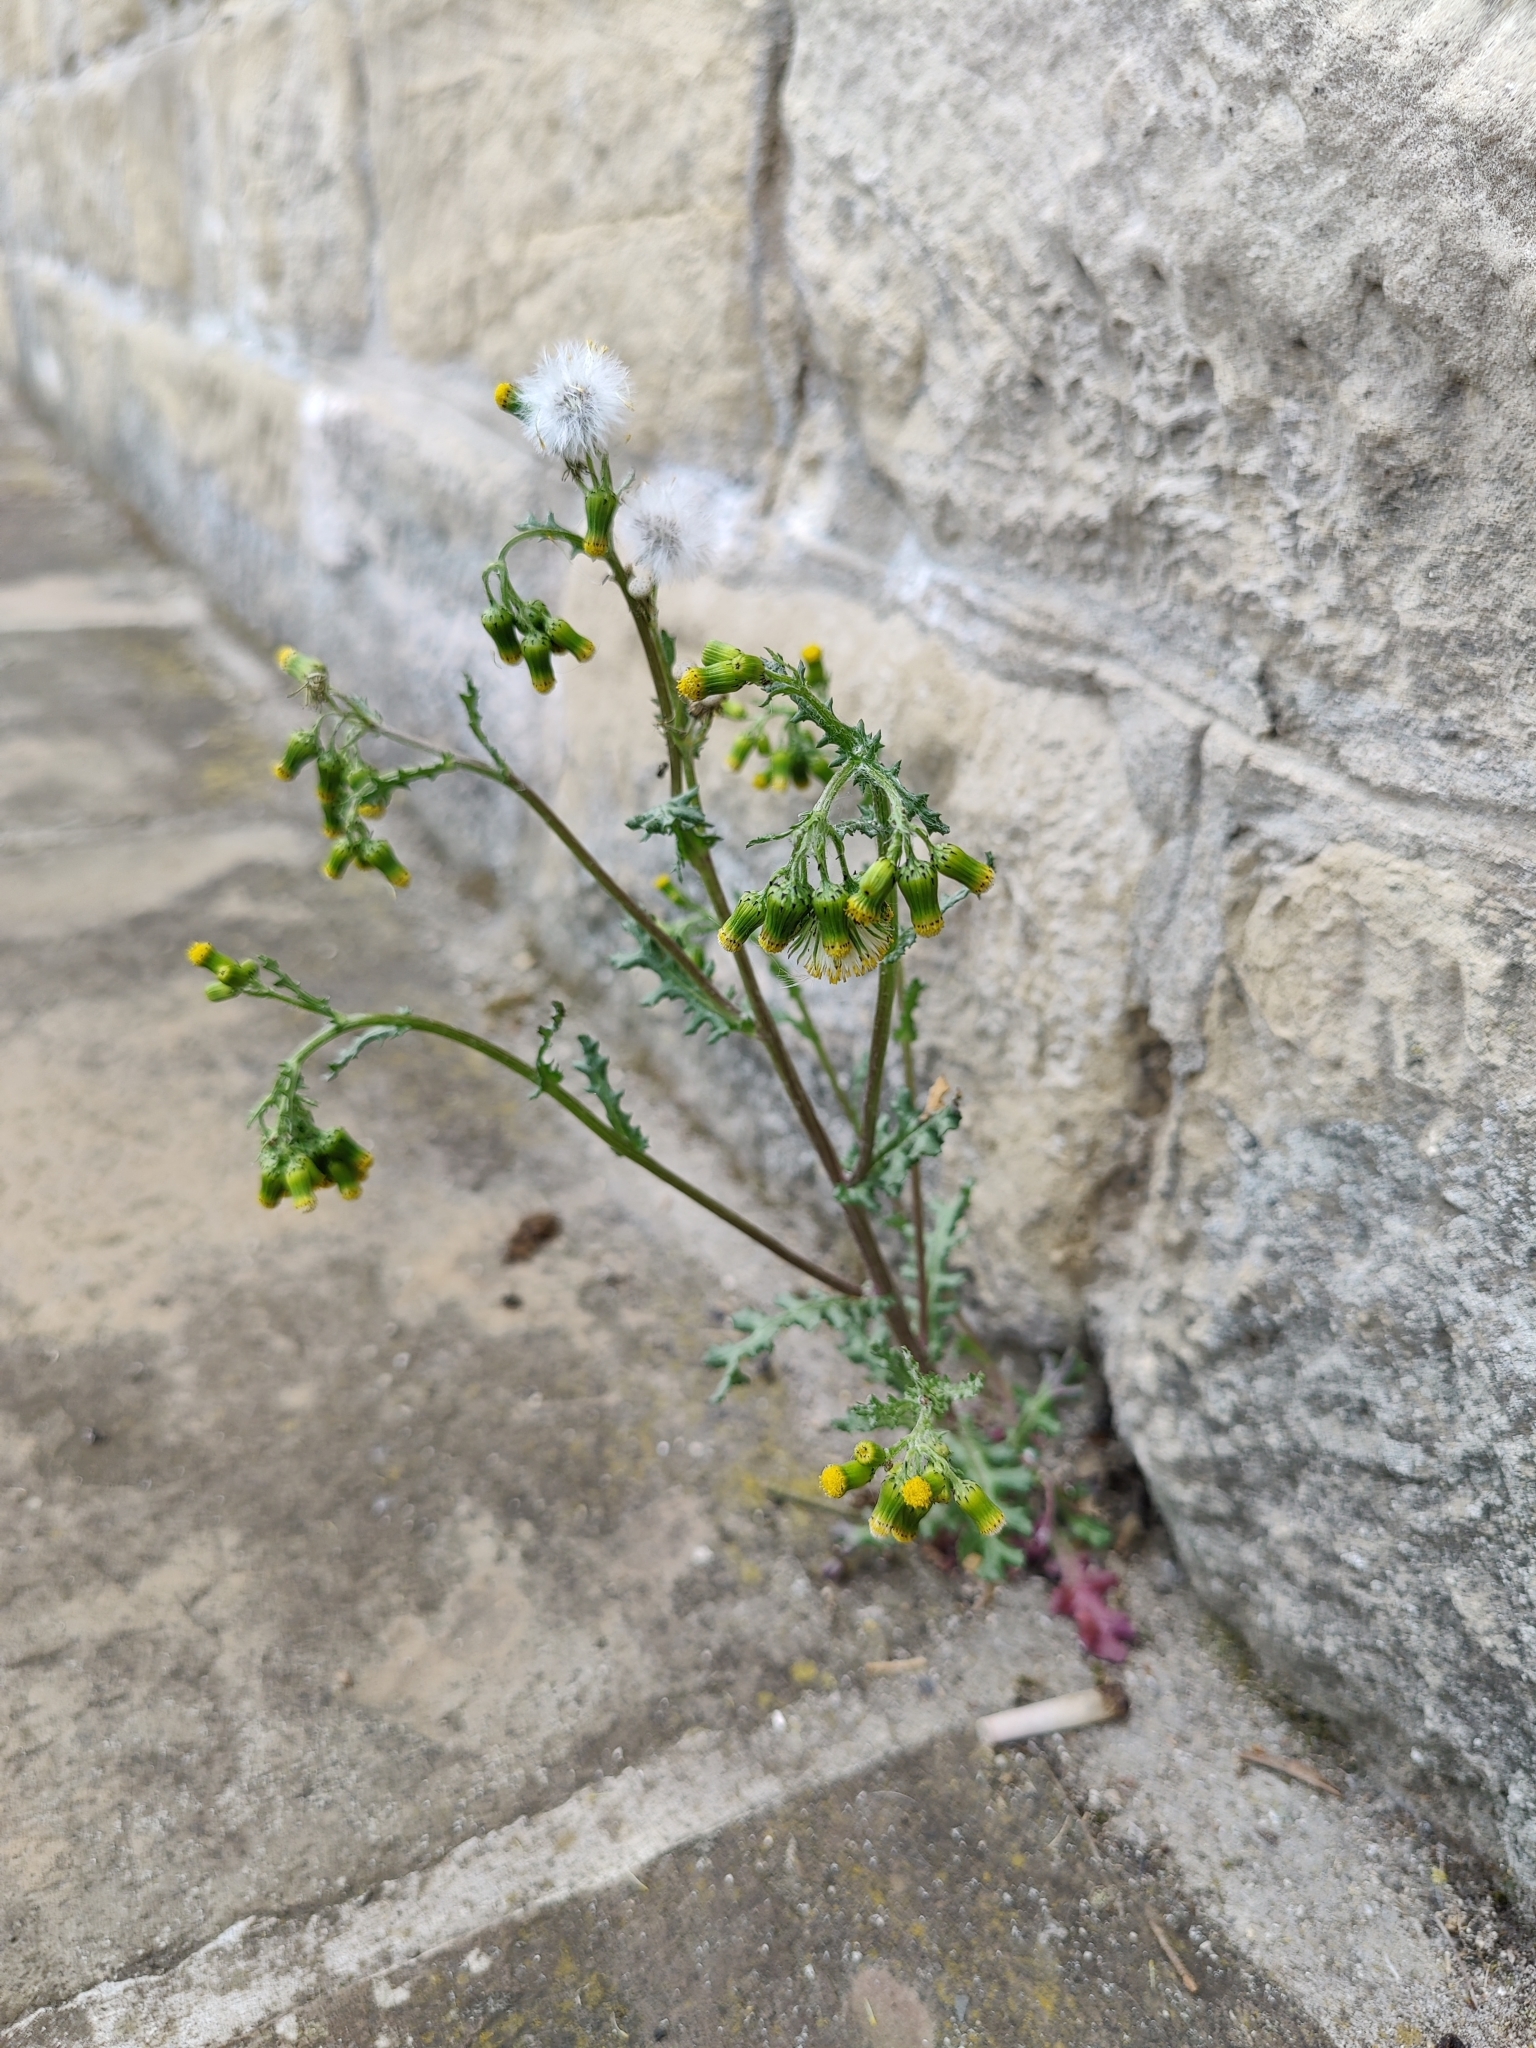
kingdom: Plantae
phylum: Tracheophyta
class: Magnoliopsida
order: Asterales
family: Asteraceae
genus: Senecio
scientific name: Senecio vulgaris
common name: Old-man-in-the-spring
